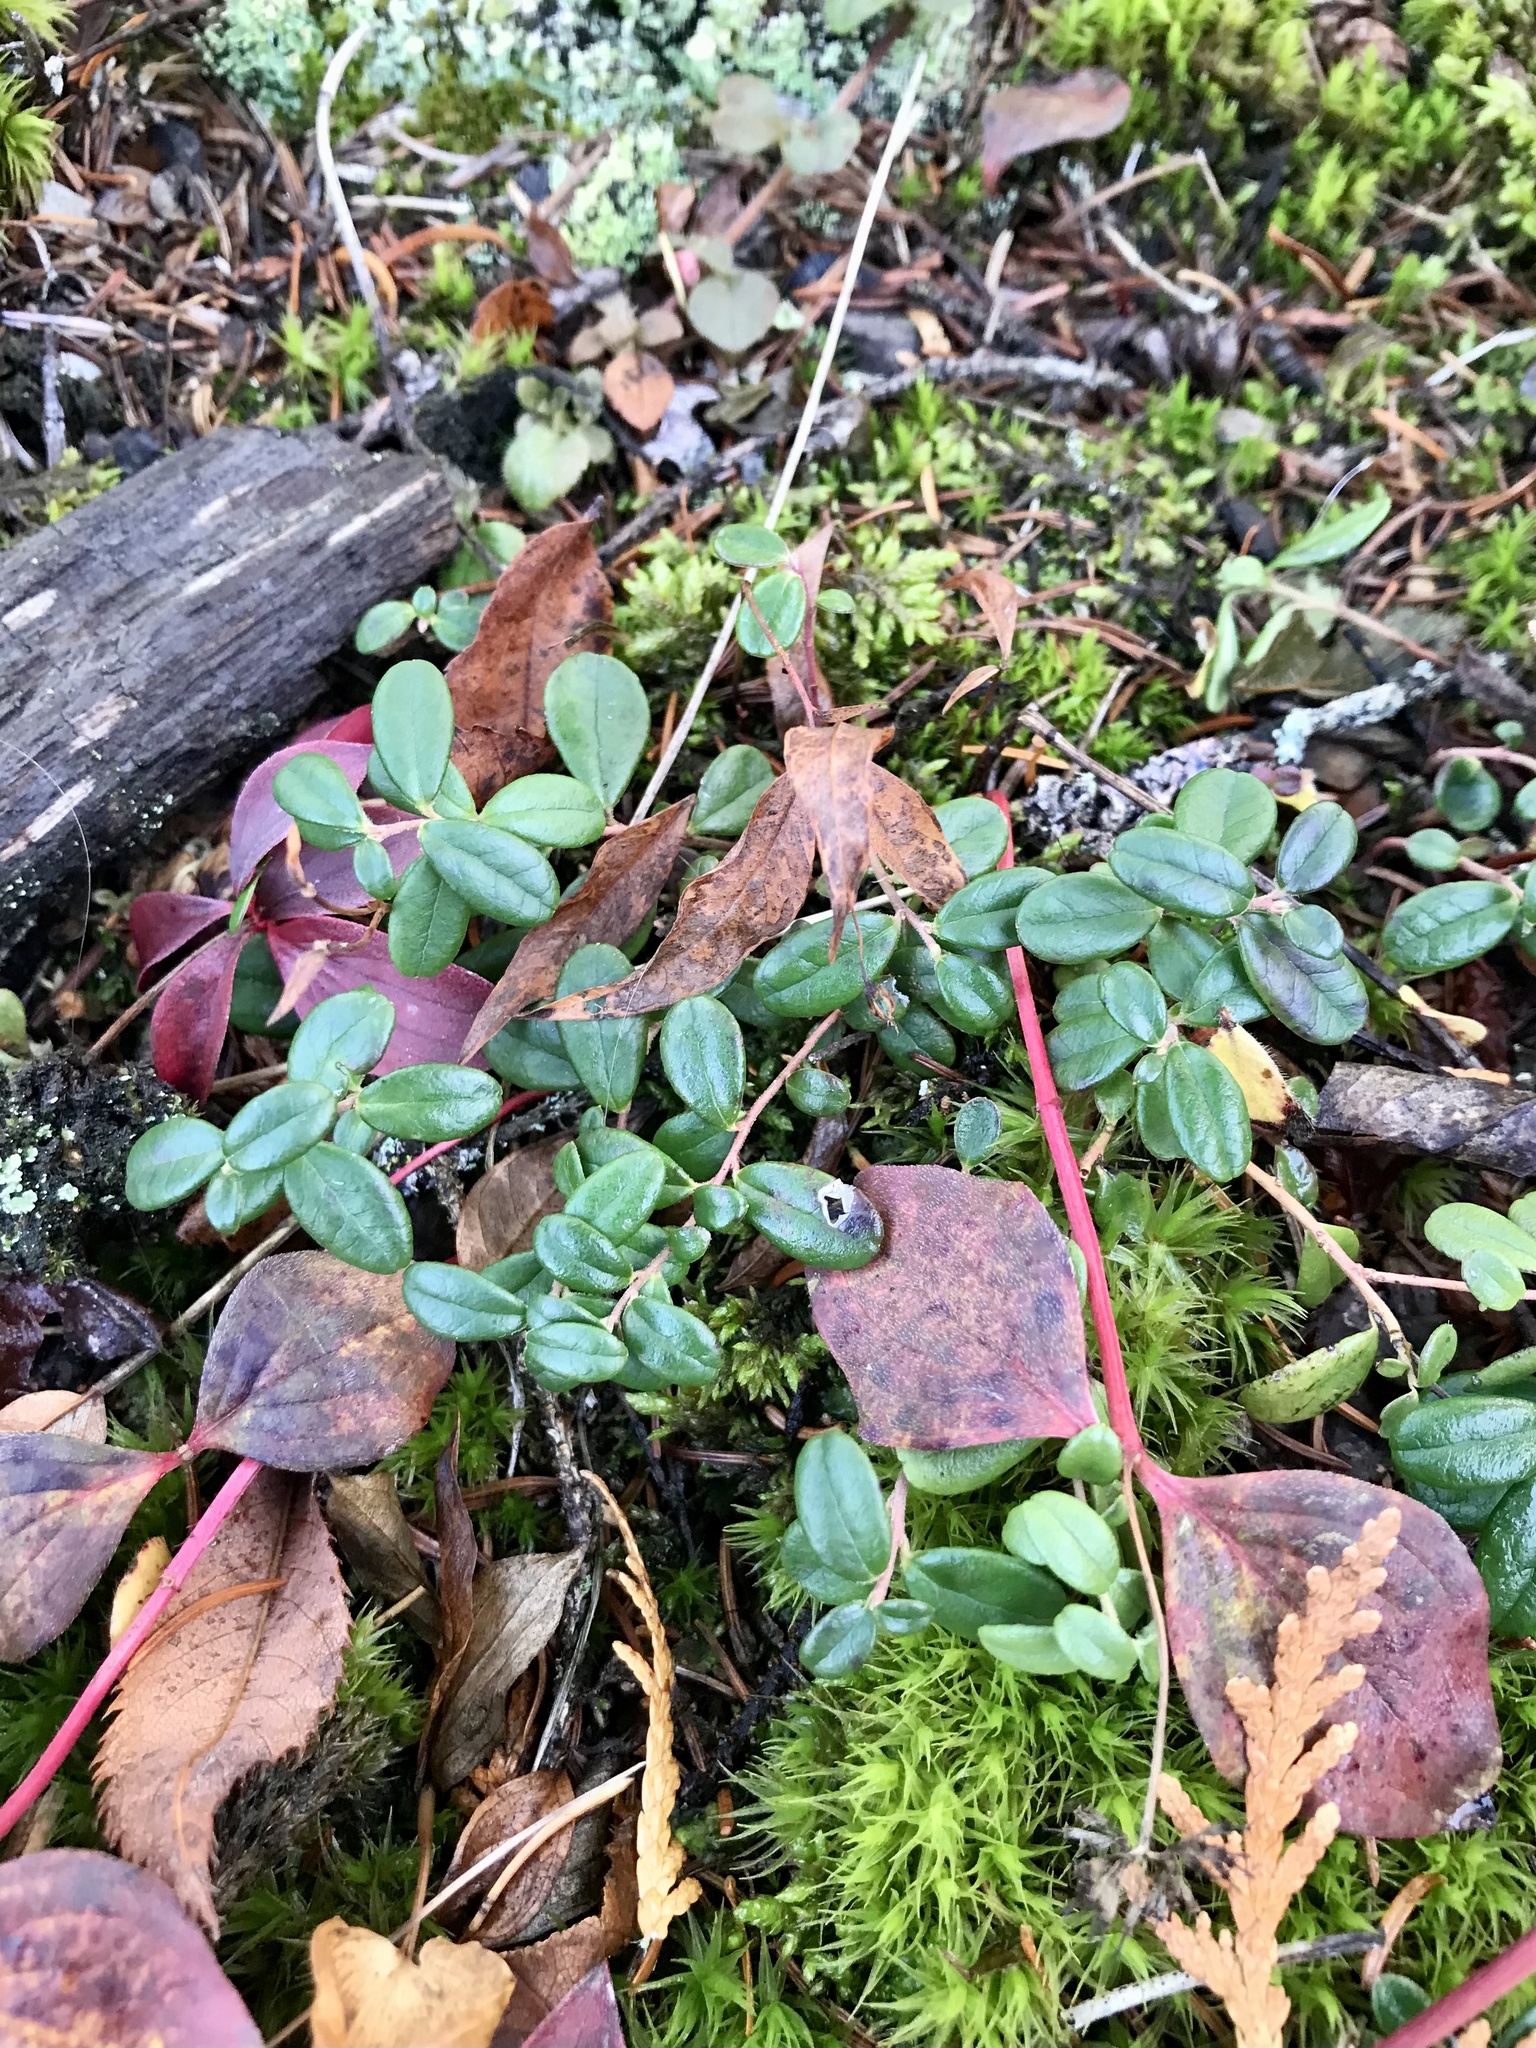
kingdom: Plantae
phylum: Tracheophyta
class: Magnoliopsida
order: Ericales
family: Ericaceae
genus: Vaccinium
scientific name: Vaccinium vitis-idaea
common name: Cowberry
